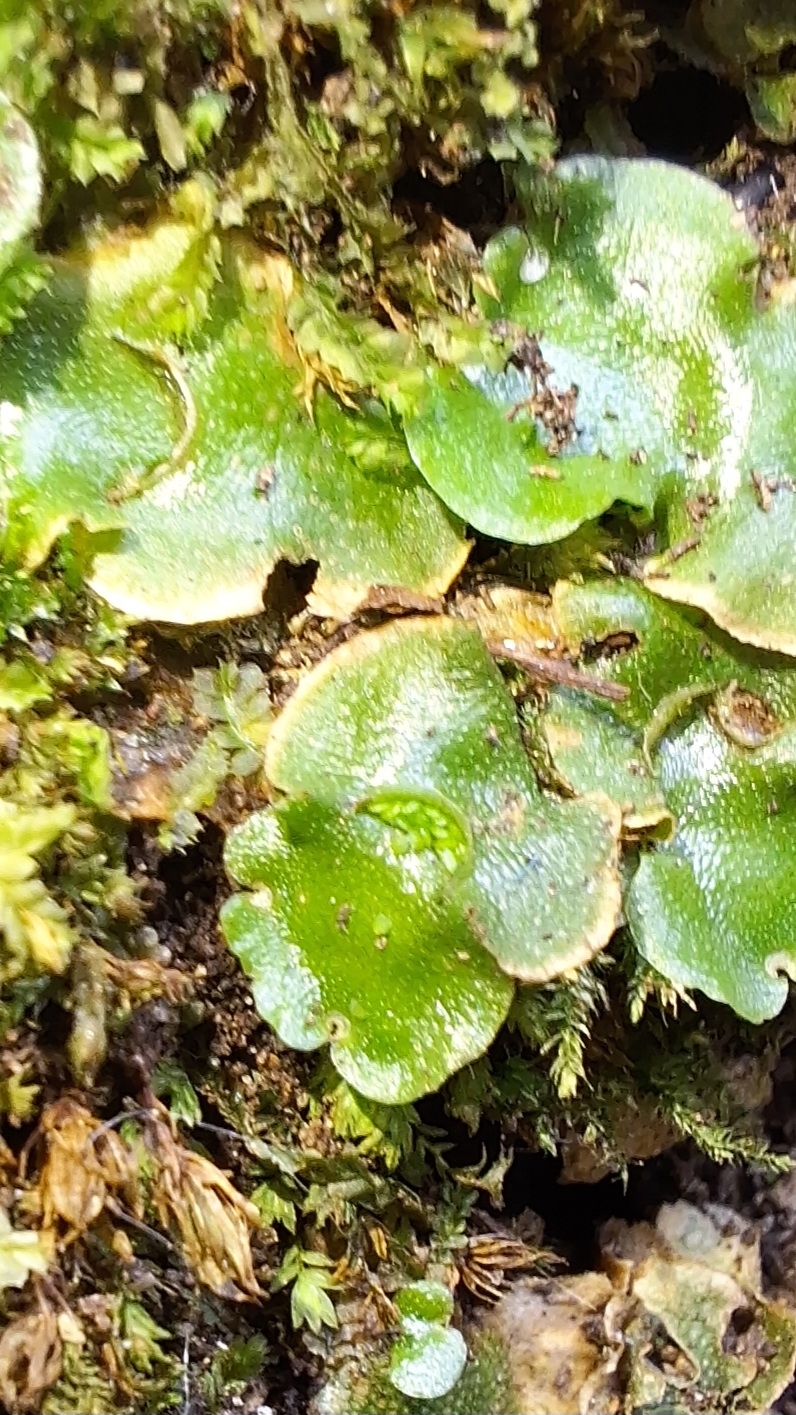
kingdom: Plantae
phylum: Marchantiophyta
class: Marchantiopsida
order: Lunulariales
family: Lunulariaceae
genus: Lunularia
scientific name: Lunularia cruciata
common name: Crescent-cup liverwort
